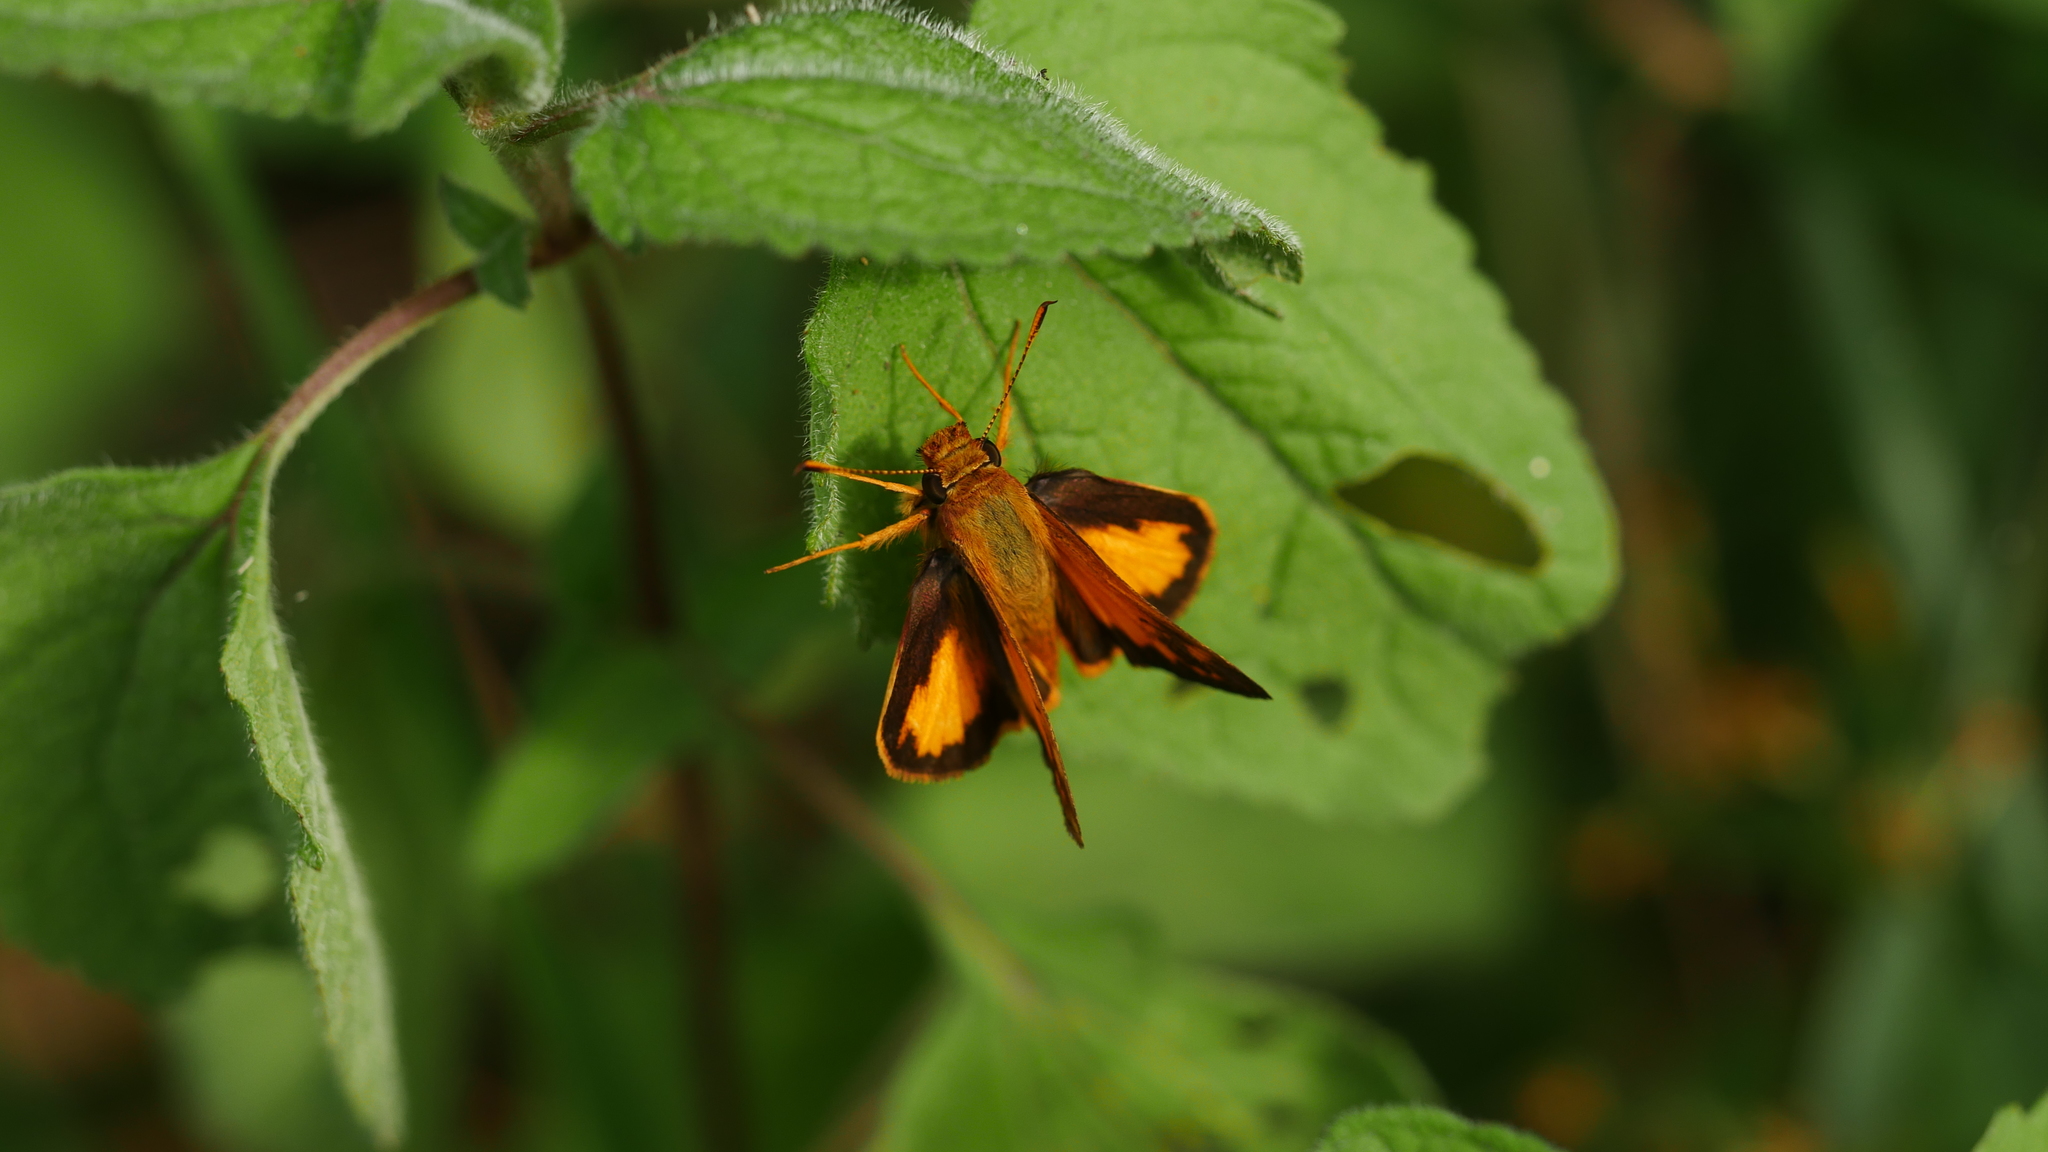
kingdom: Animalia
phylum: Arthropoda
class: Insecta
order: Lepidoptera
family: Hesperiidae
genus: Lon
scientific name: Lon zabulon
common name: Zabulon skipper
